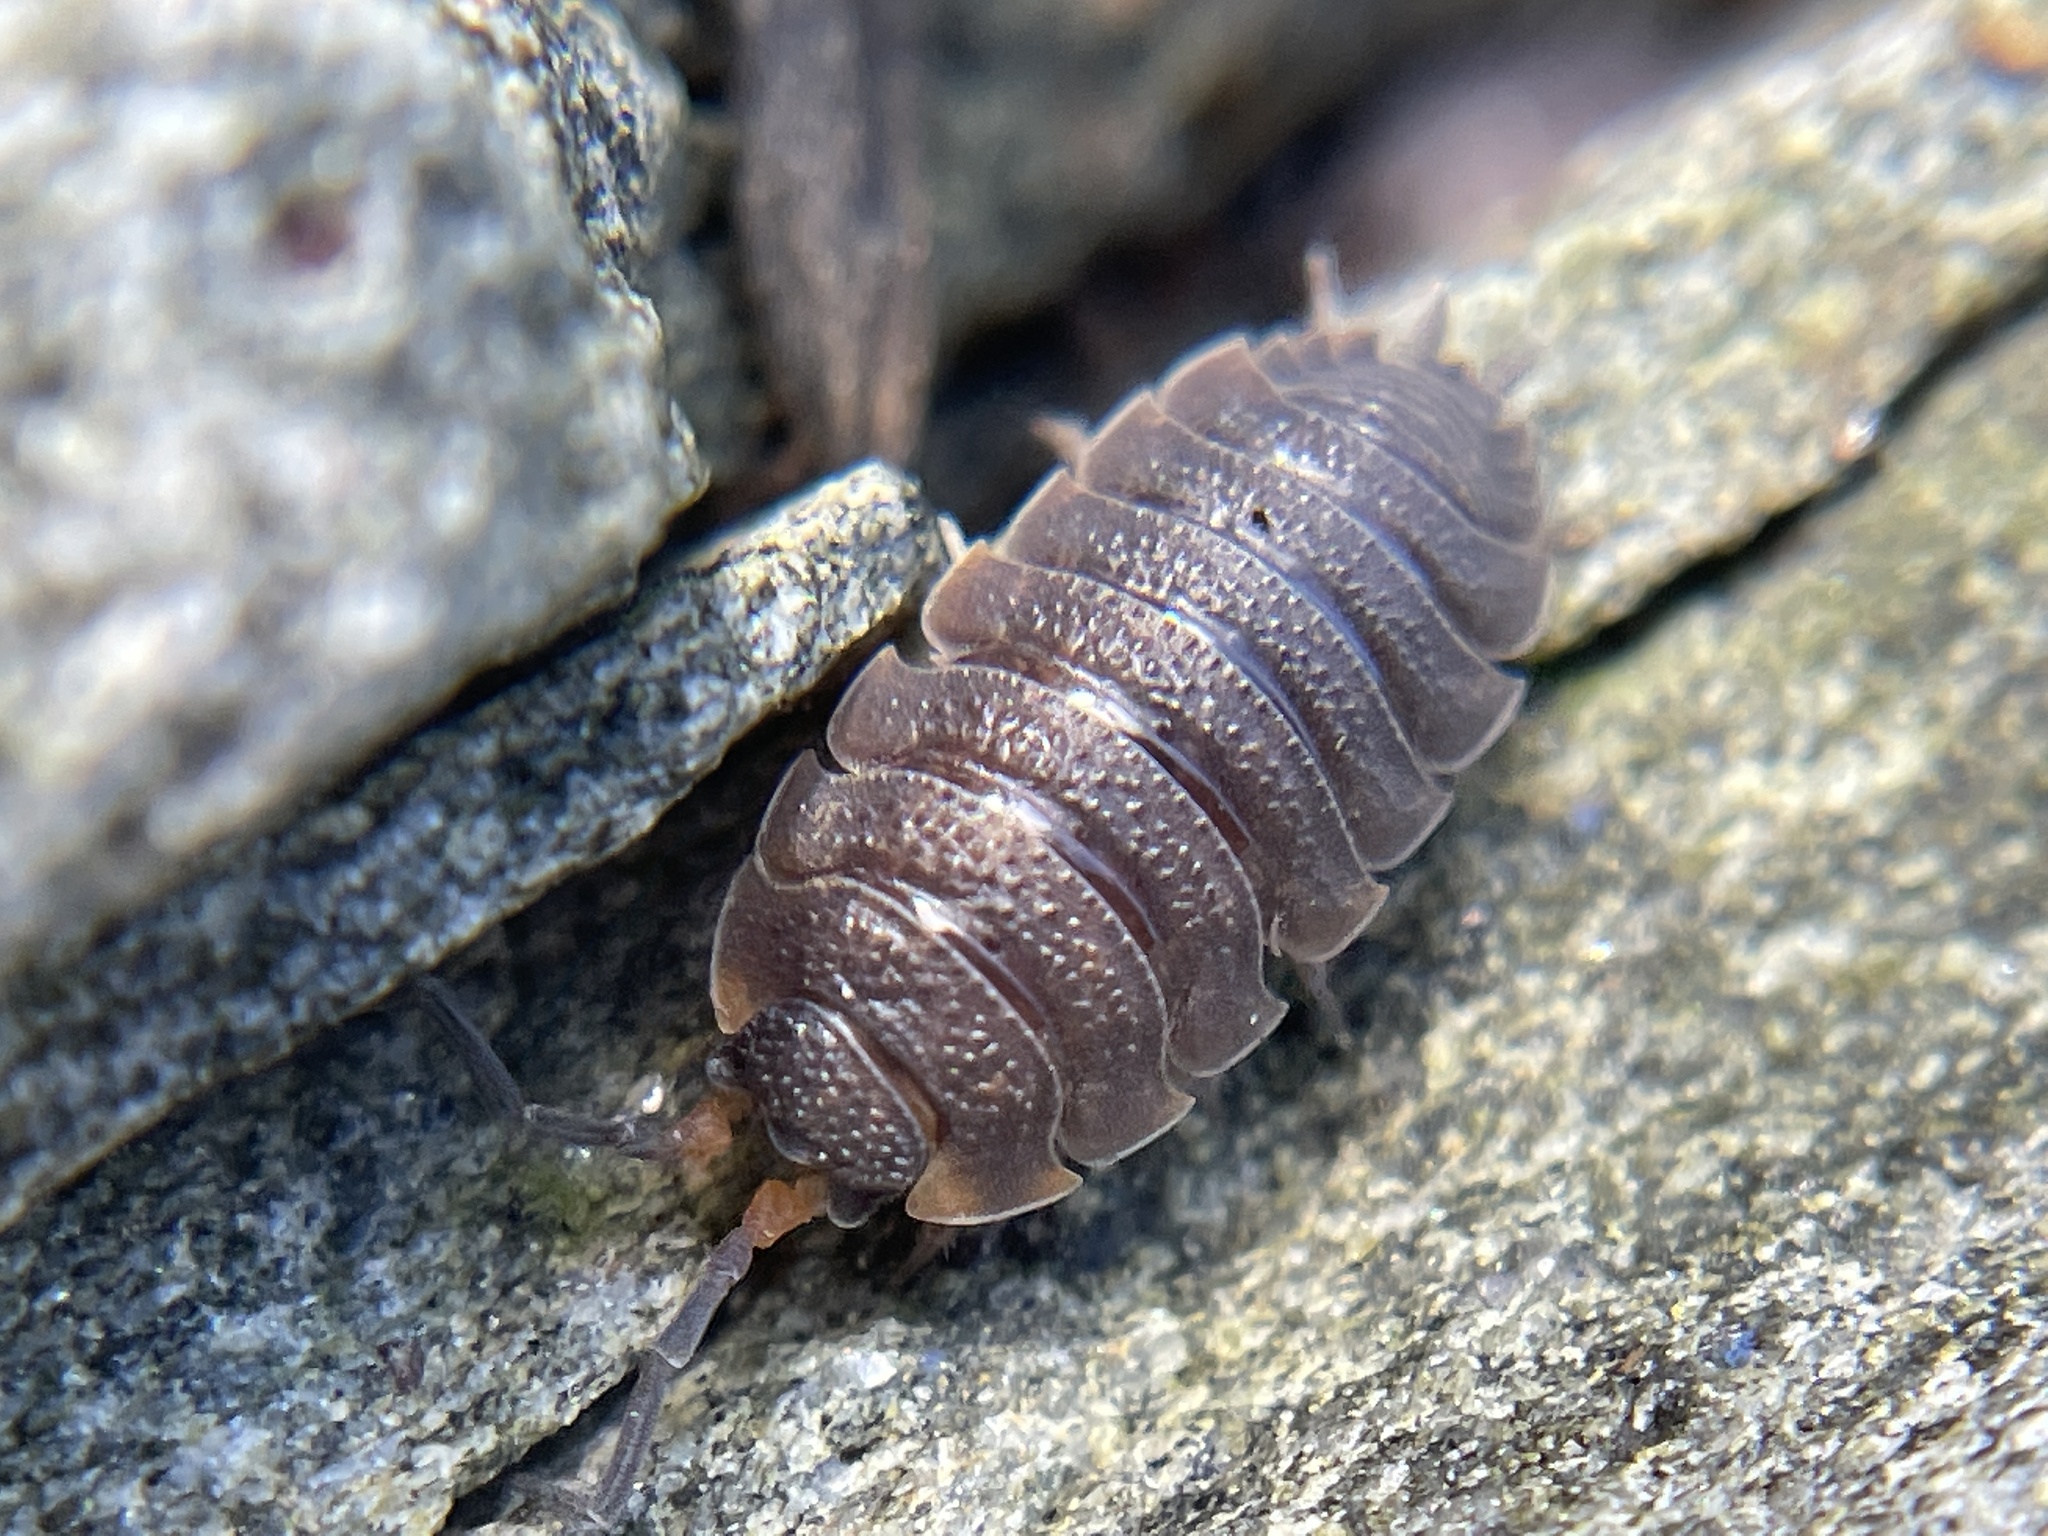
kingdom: Animalia
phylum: Arthropoda
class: Malacostraca
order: Isopoda
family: Porcellionidae
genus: Porcellio
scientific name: Porcellio scaber
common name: Common rough woodlouse
